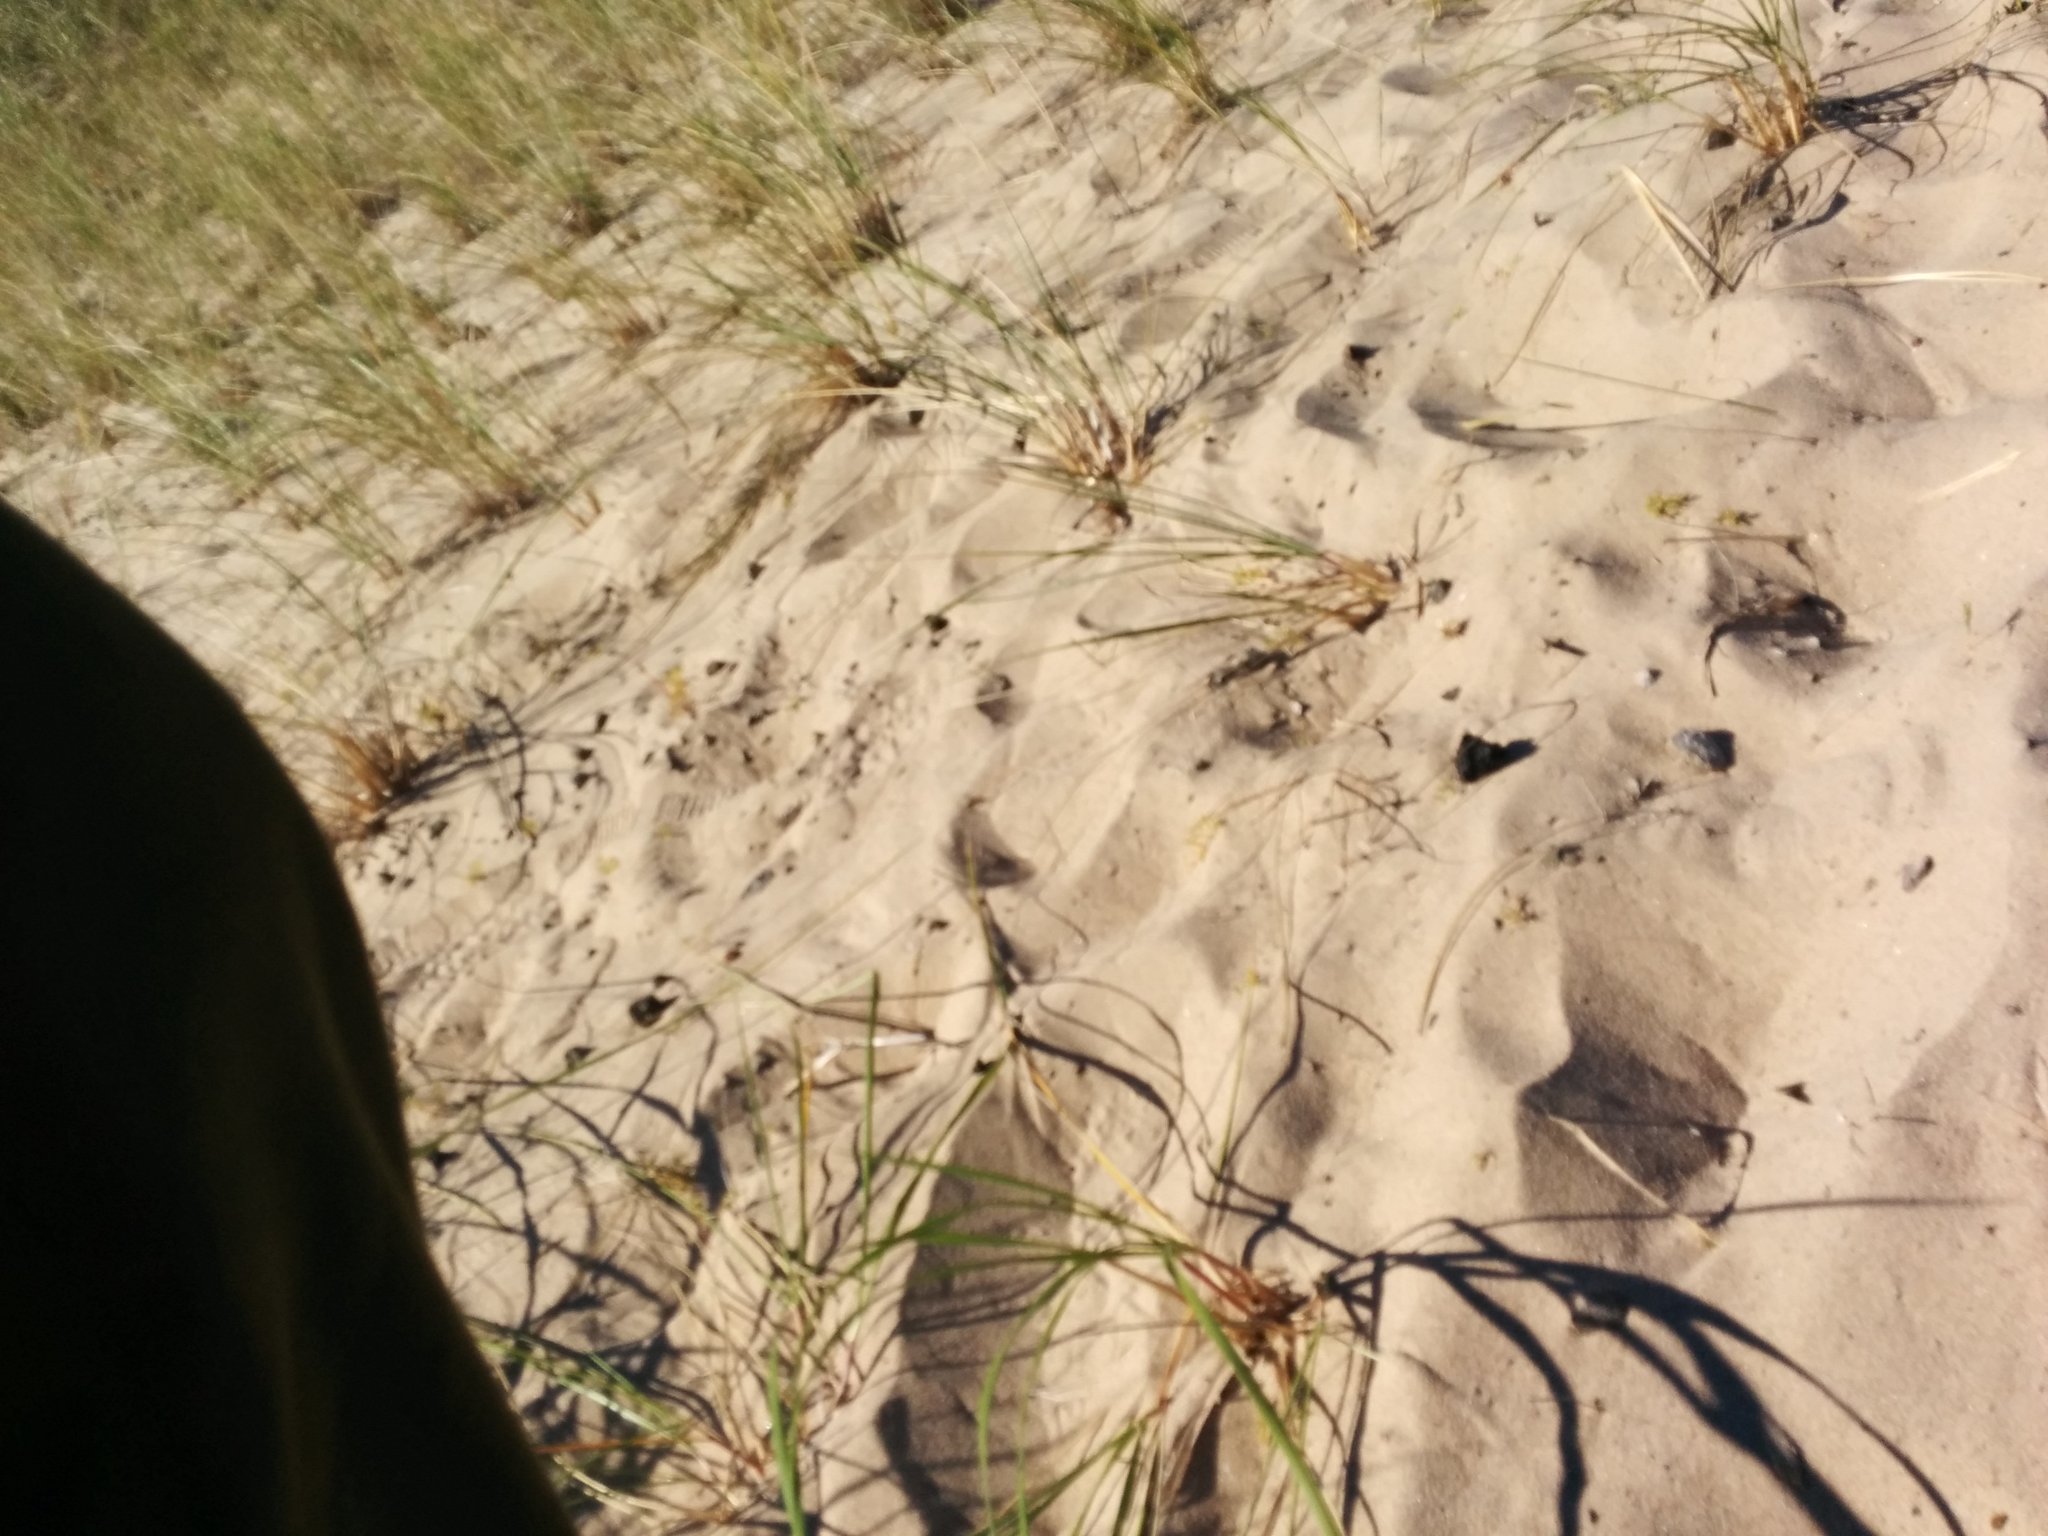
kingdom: Plantae
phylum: Tracheophyta
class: Liliopsida
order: Poales
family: Poaceae
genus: Calamagrostis
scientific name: Calamagrostis breviligulata
